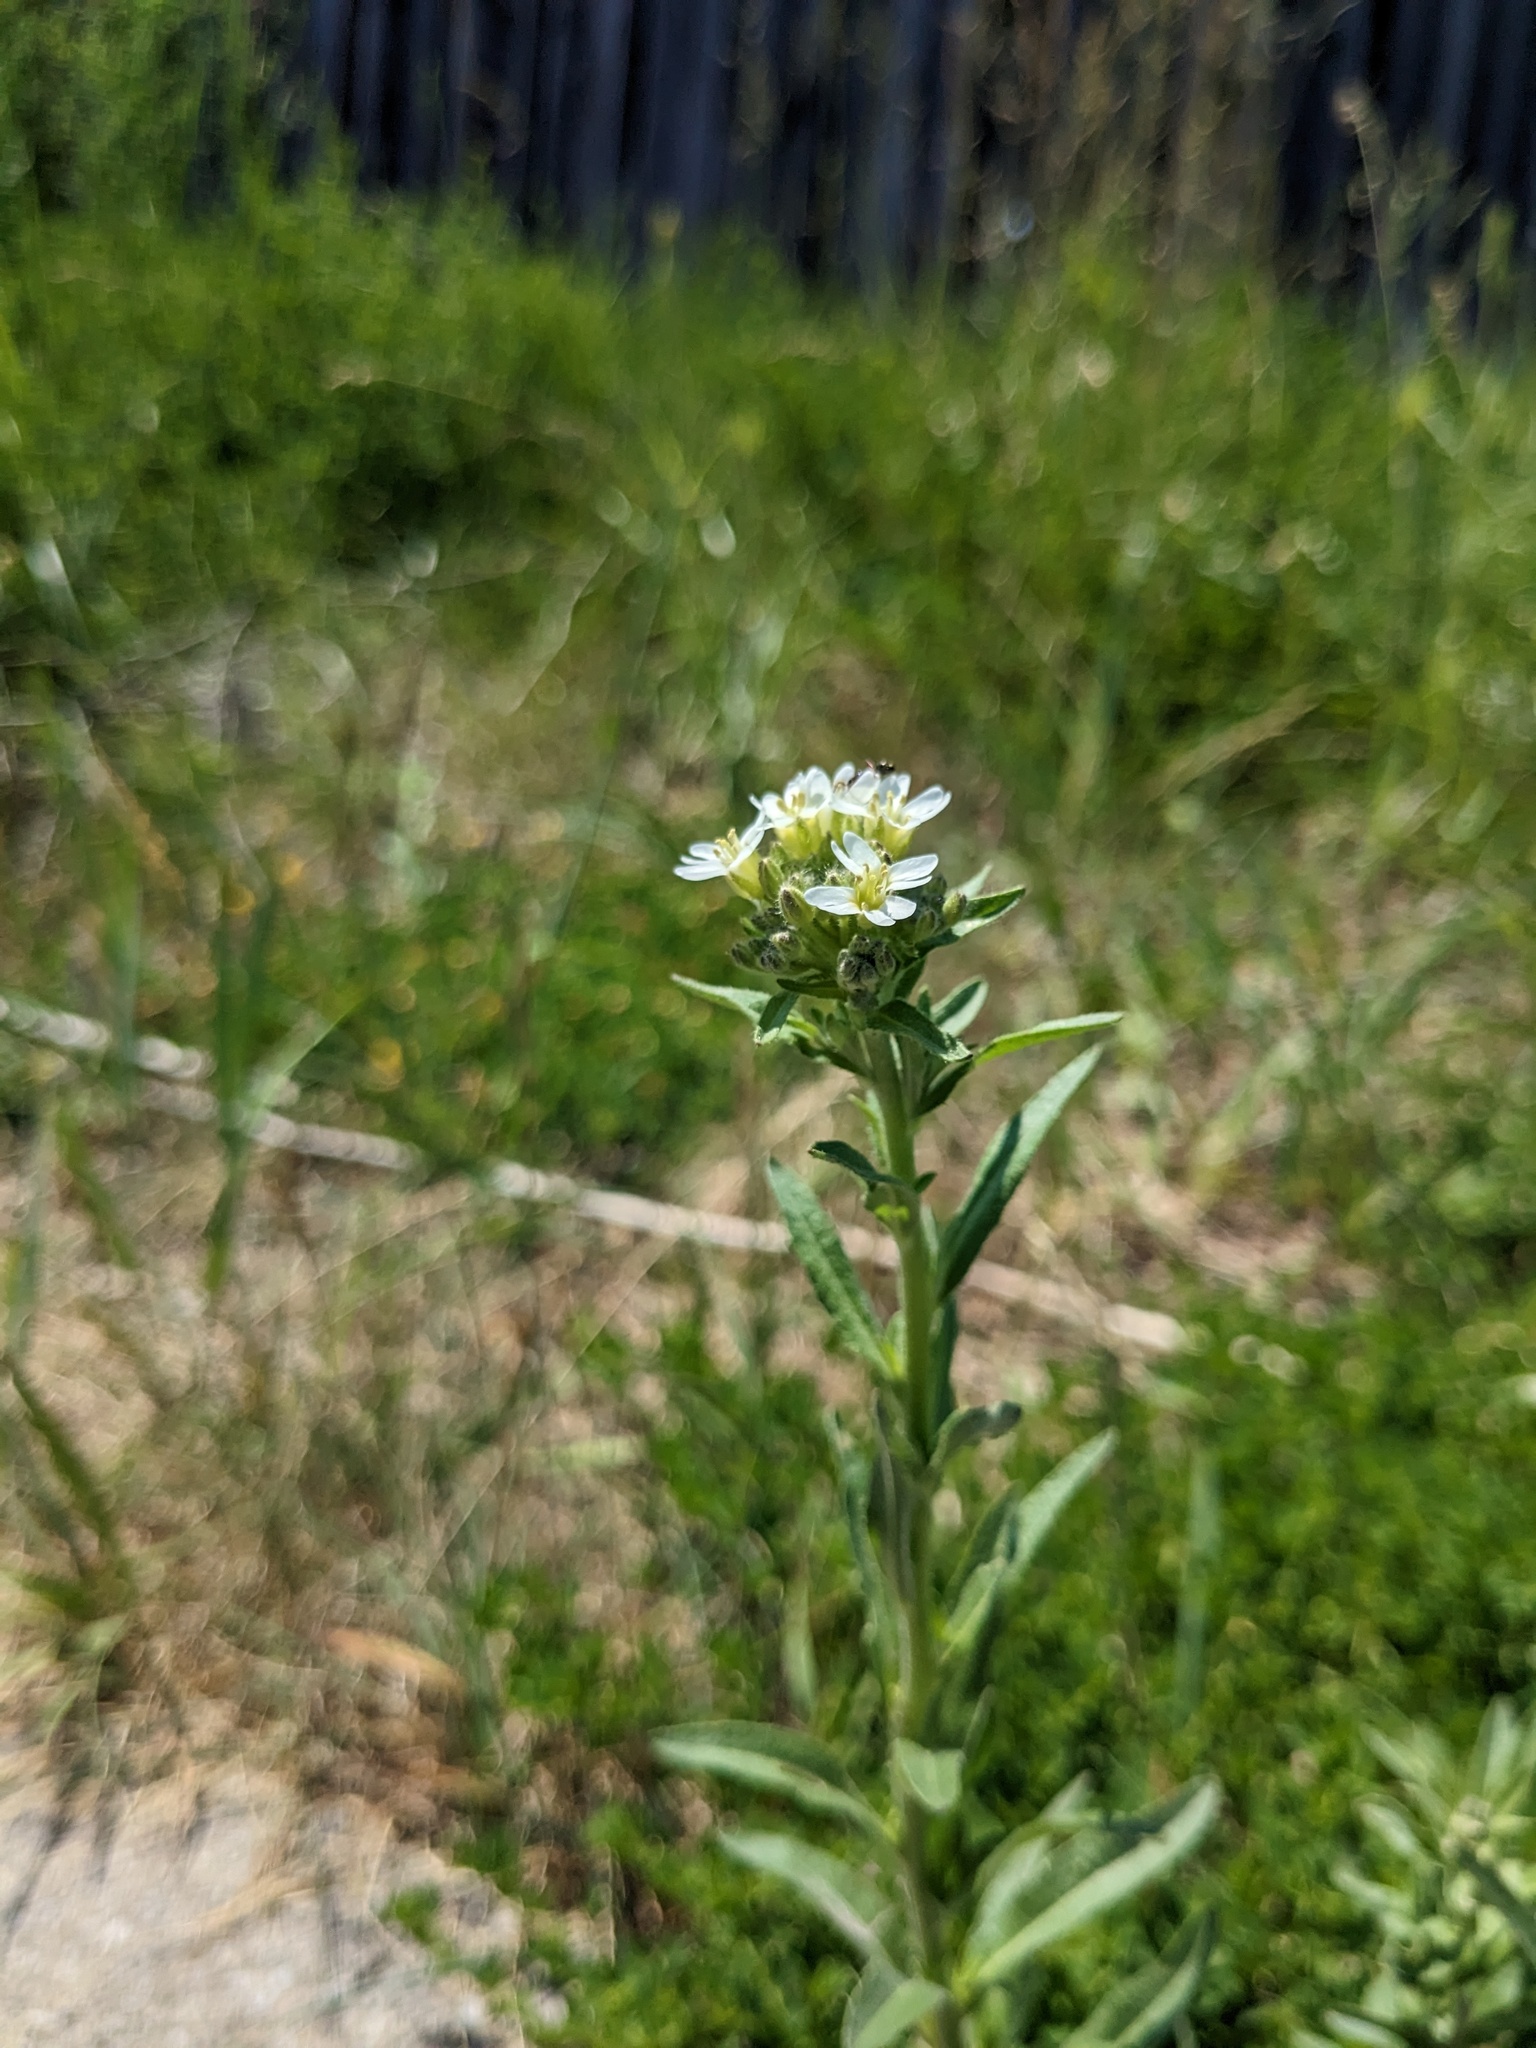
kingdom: Plantae
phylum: Tracheophyta
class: Magnoliopsida
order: Brassicales
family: Brassicaceae
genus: Berteroa
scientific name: Berteroa incana
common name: Hoary alison
